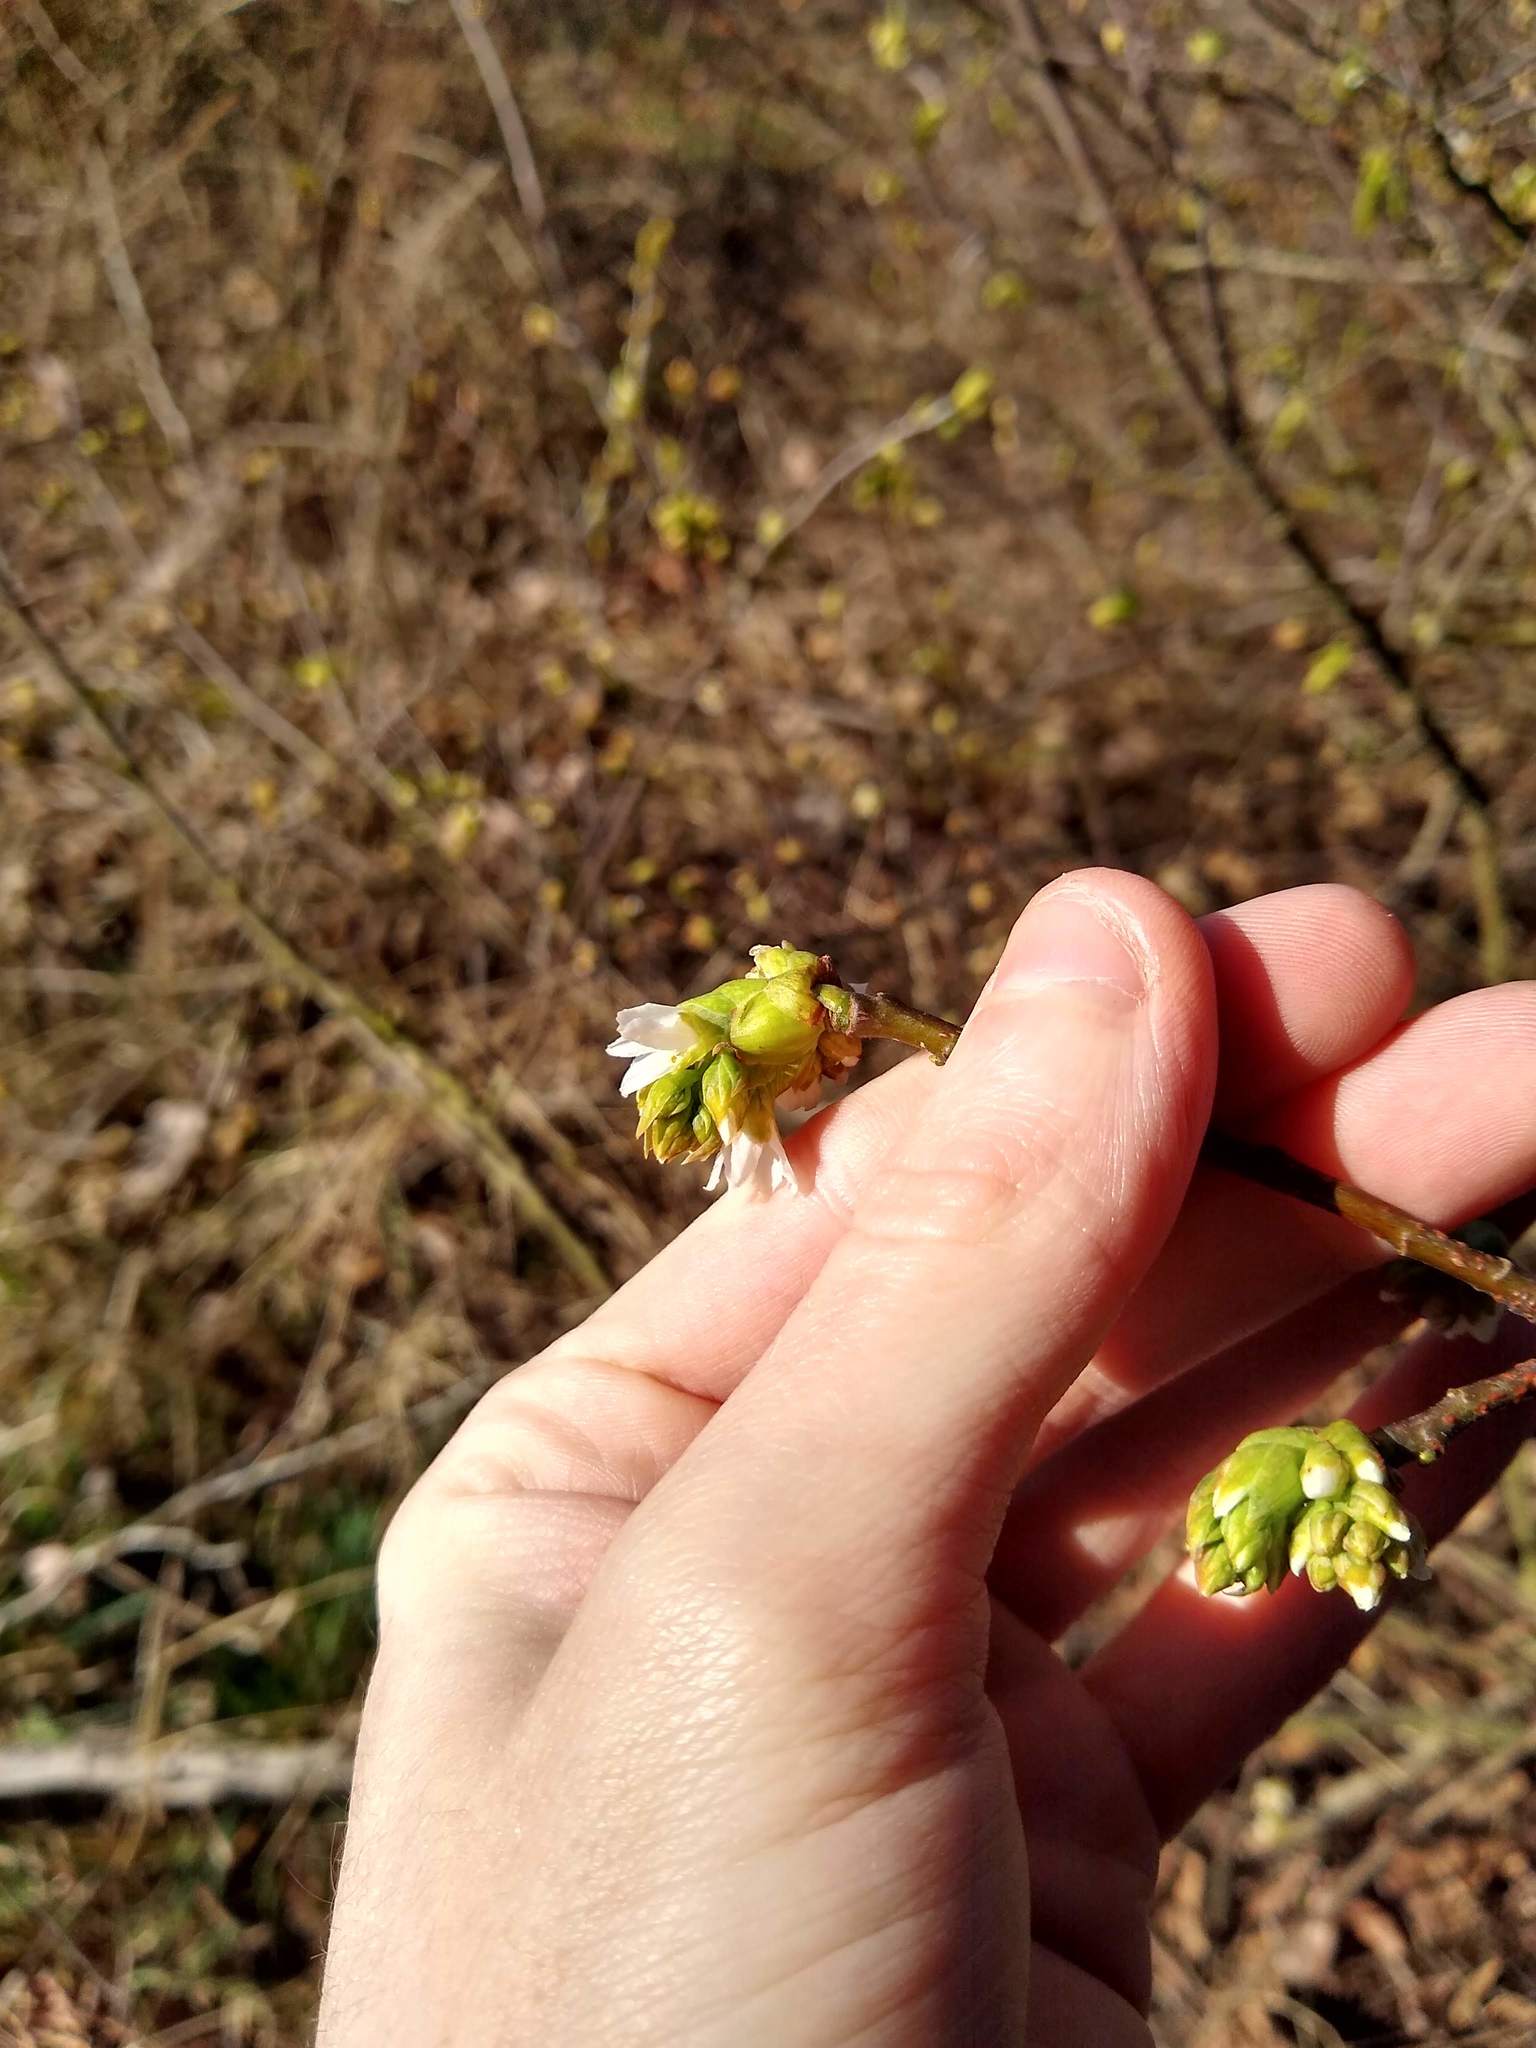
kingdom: Plantae
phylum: Tracheophyta
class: Magnoliopsida
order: Rosales
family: Rosaceae
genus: Oemleria
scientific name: Oemleria cerasiformis
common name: Osoberry
